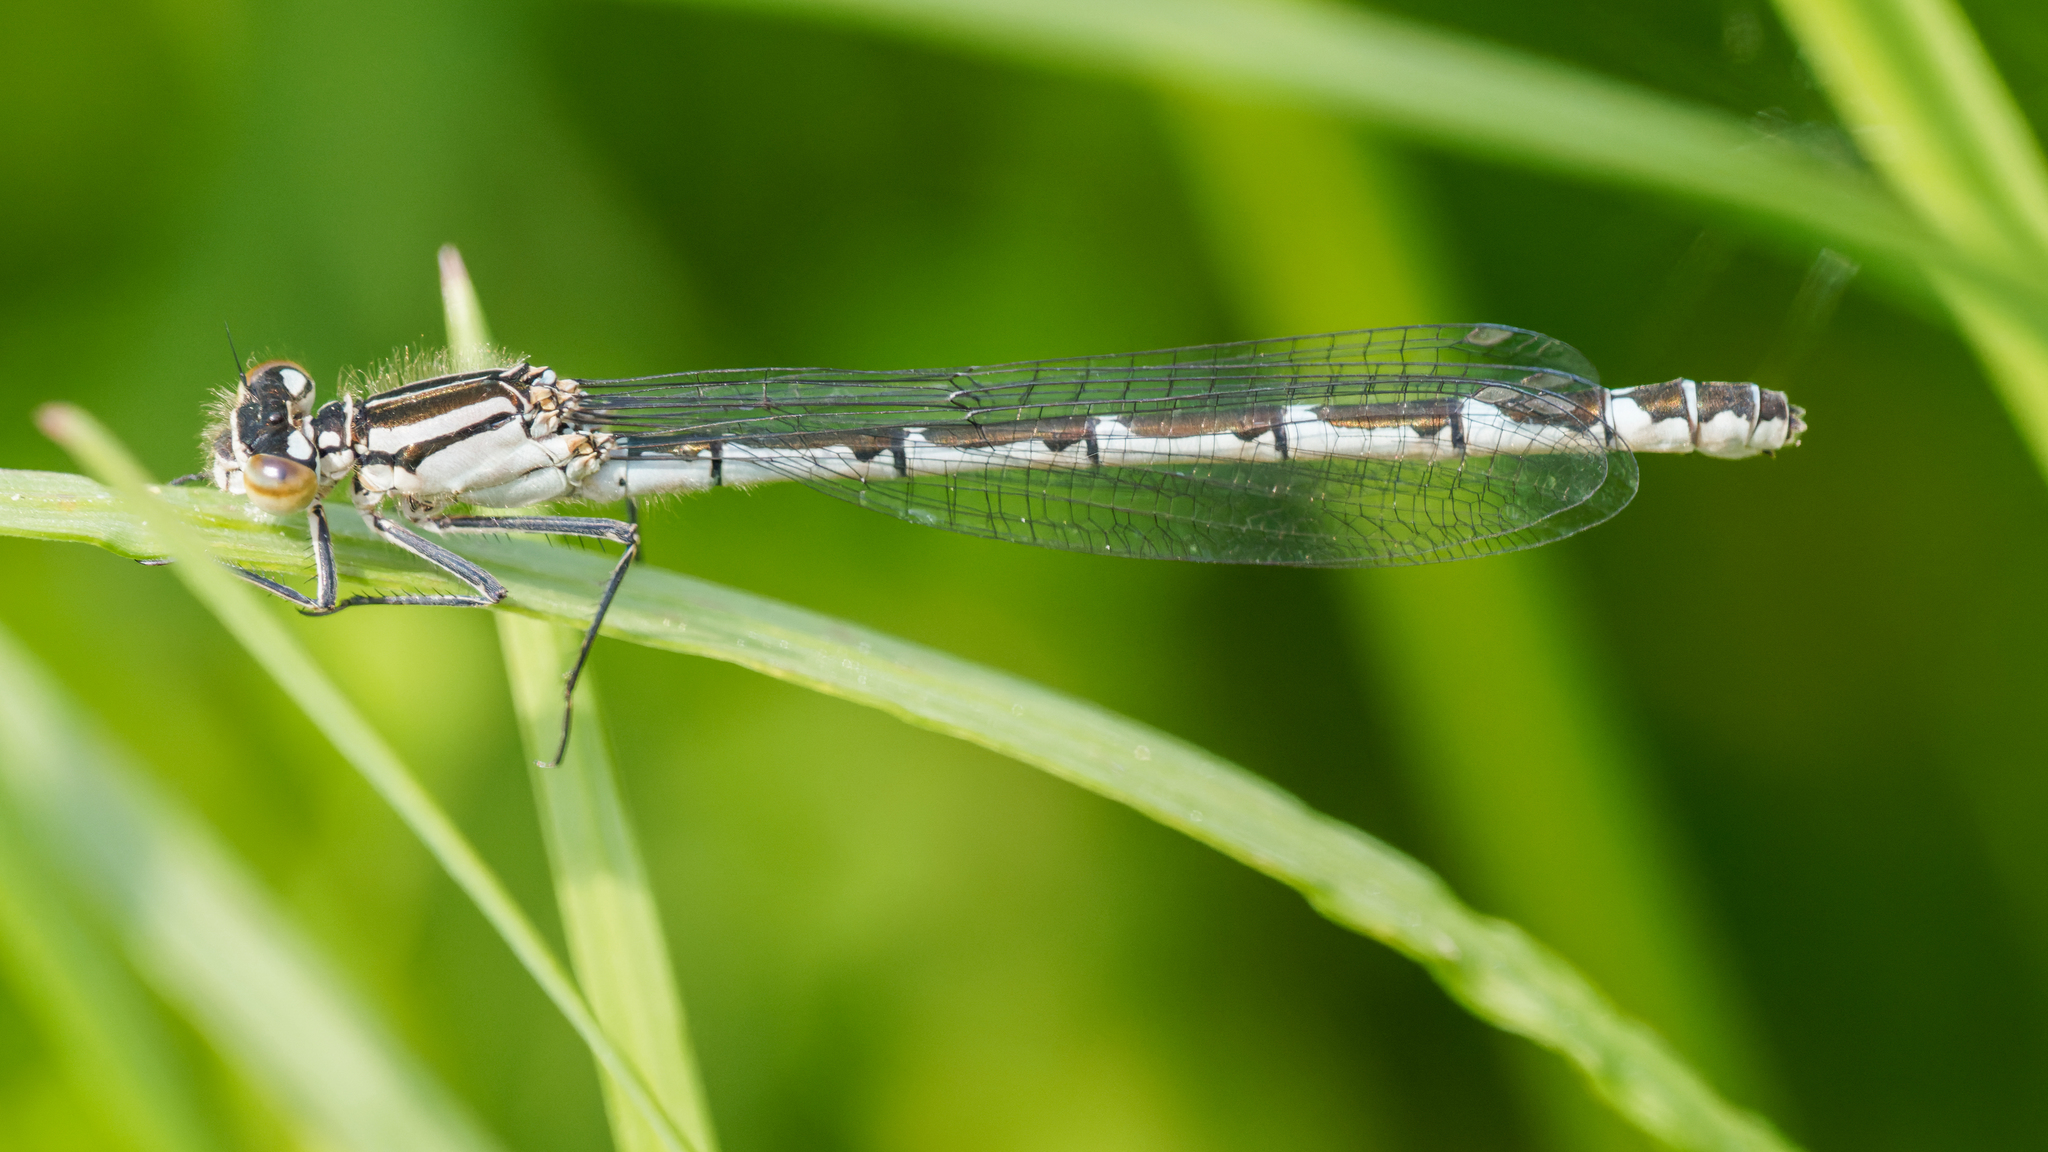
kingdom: Animalia
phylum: Arthropoda
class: Insecta
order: Odonata
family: Coenagrionidae
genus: Enallagma
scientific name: Enallagma cyathigerum
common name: Common blue damselfly
